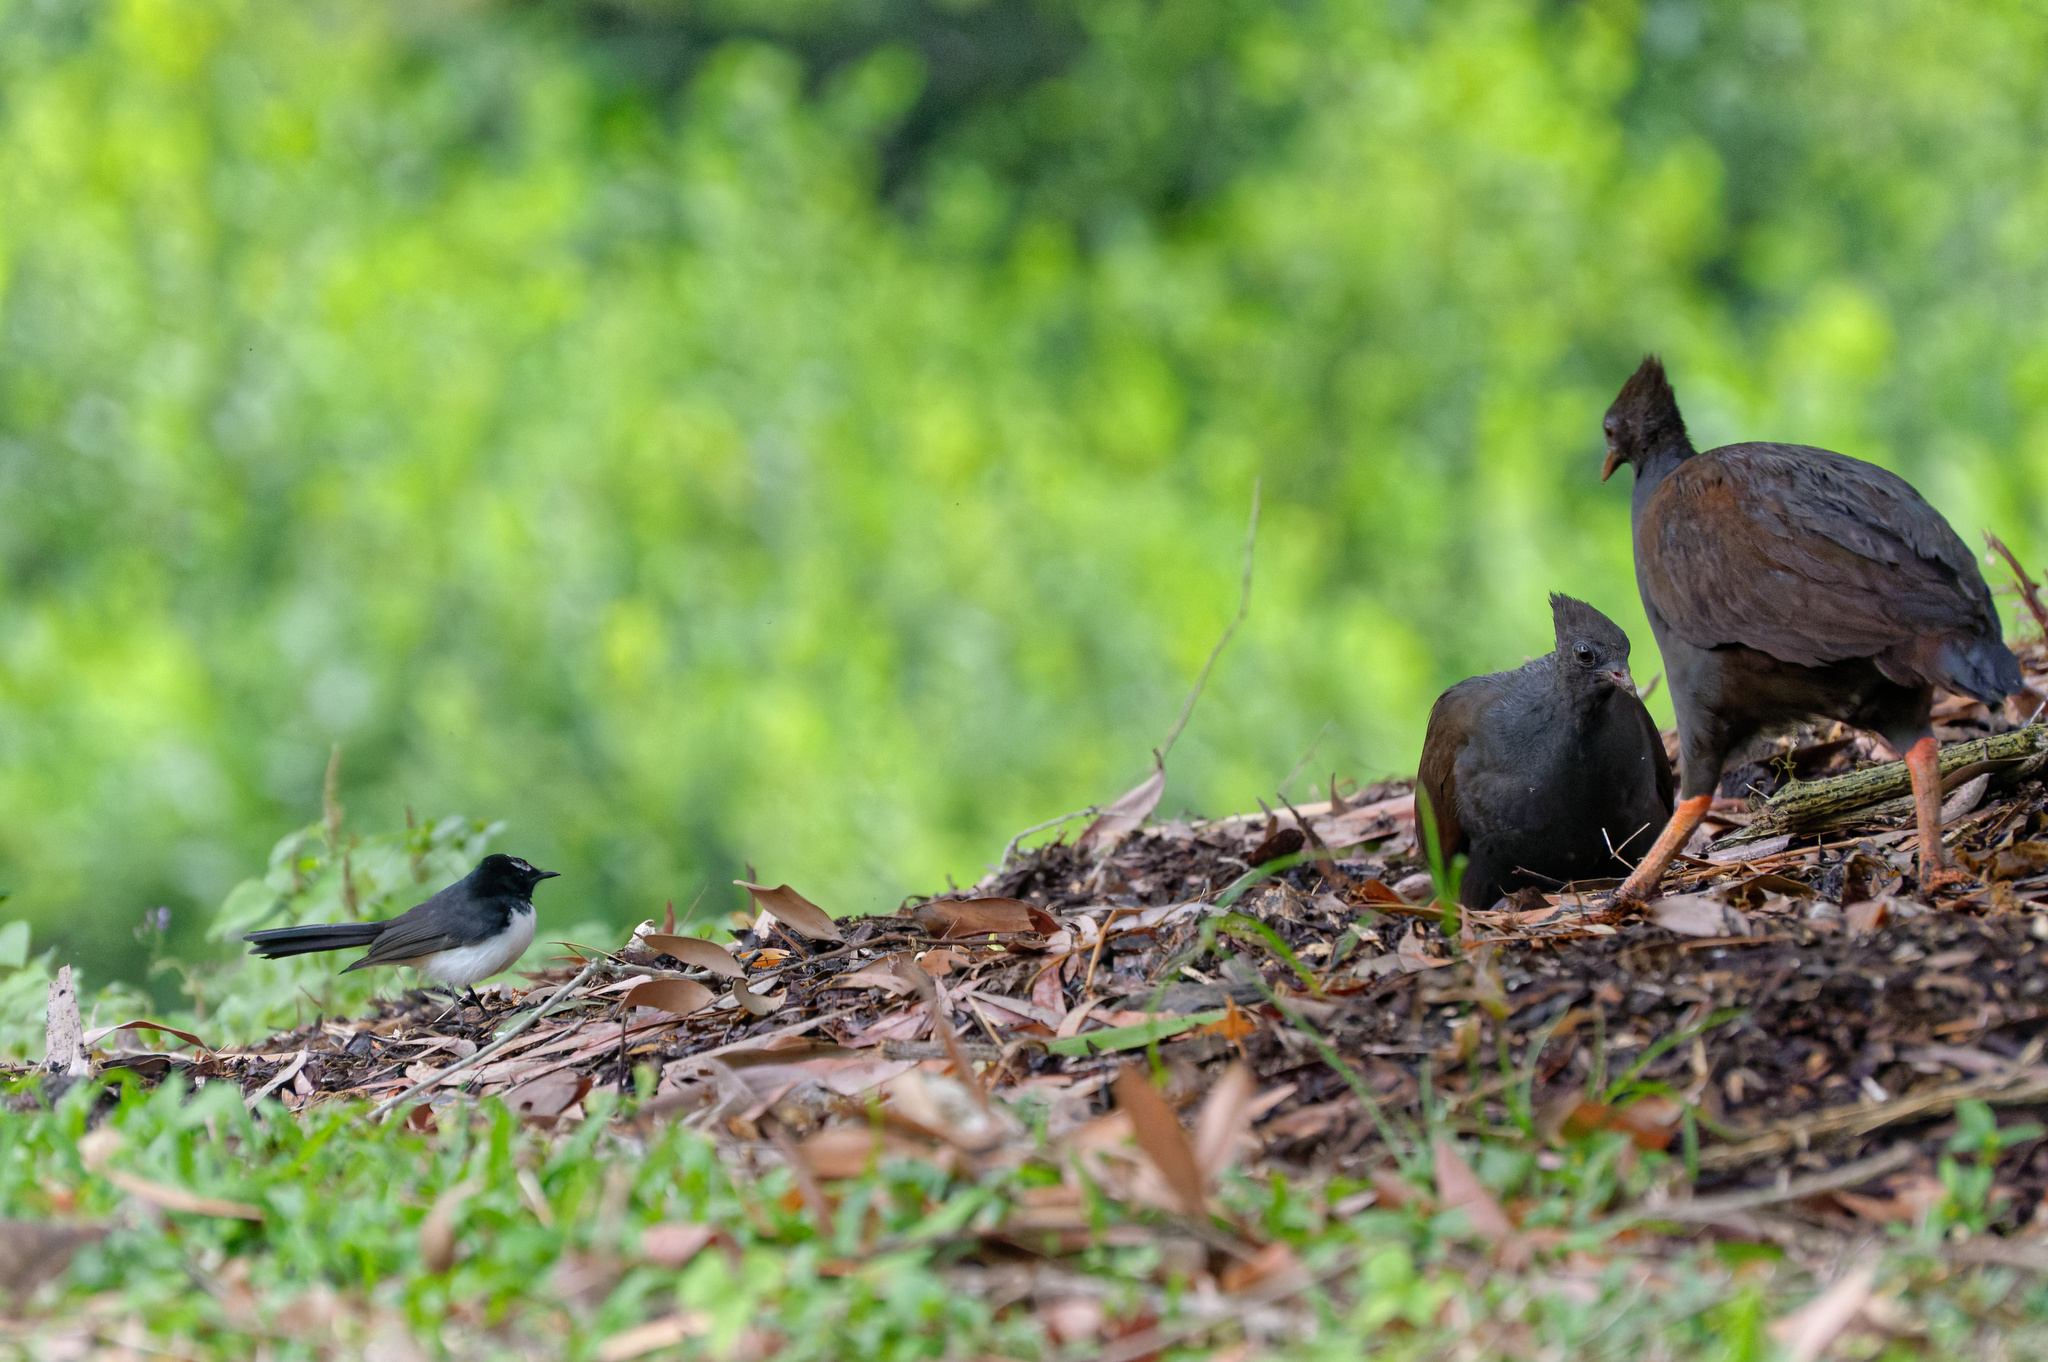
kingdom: Animalia
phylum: Chordata
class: Aves
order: Galliformes
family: Megapodiidae
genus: Megapodius
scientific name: Megapodius reinwardt
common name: Orange-footed scrubfowl
